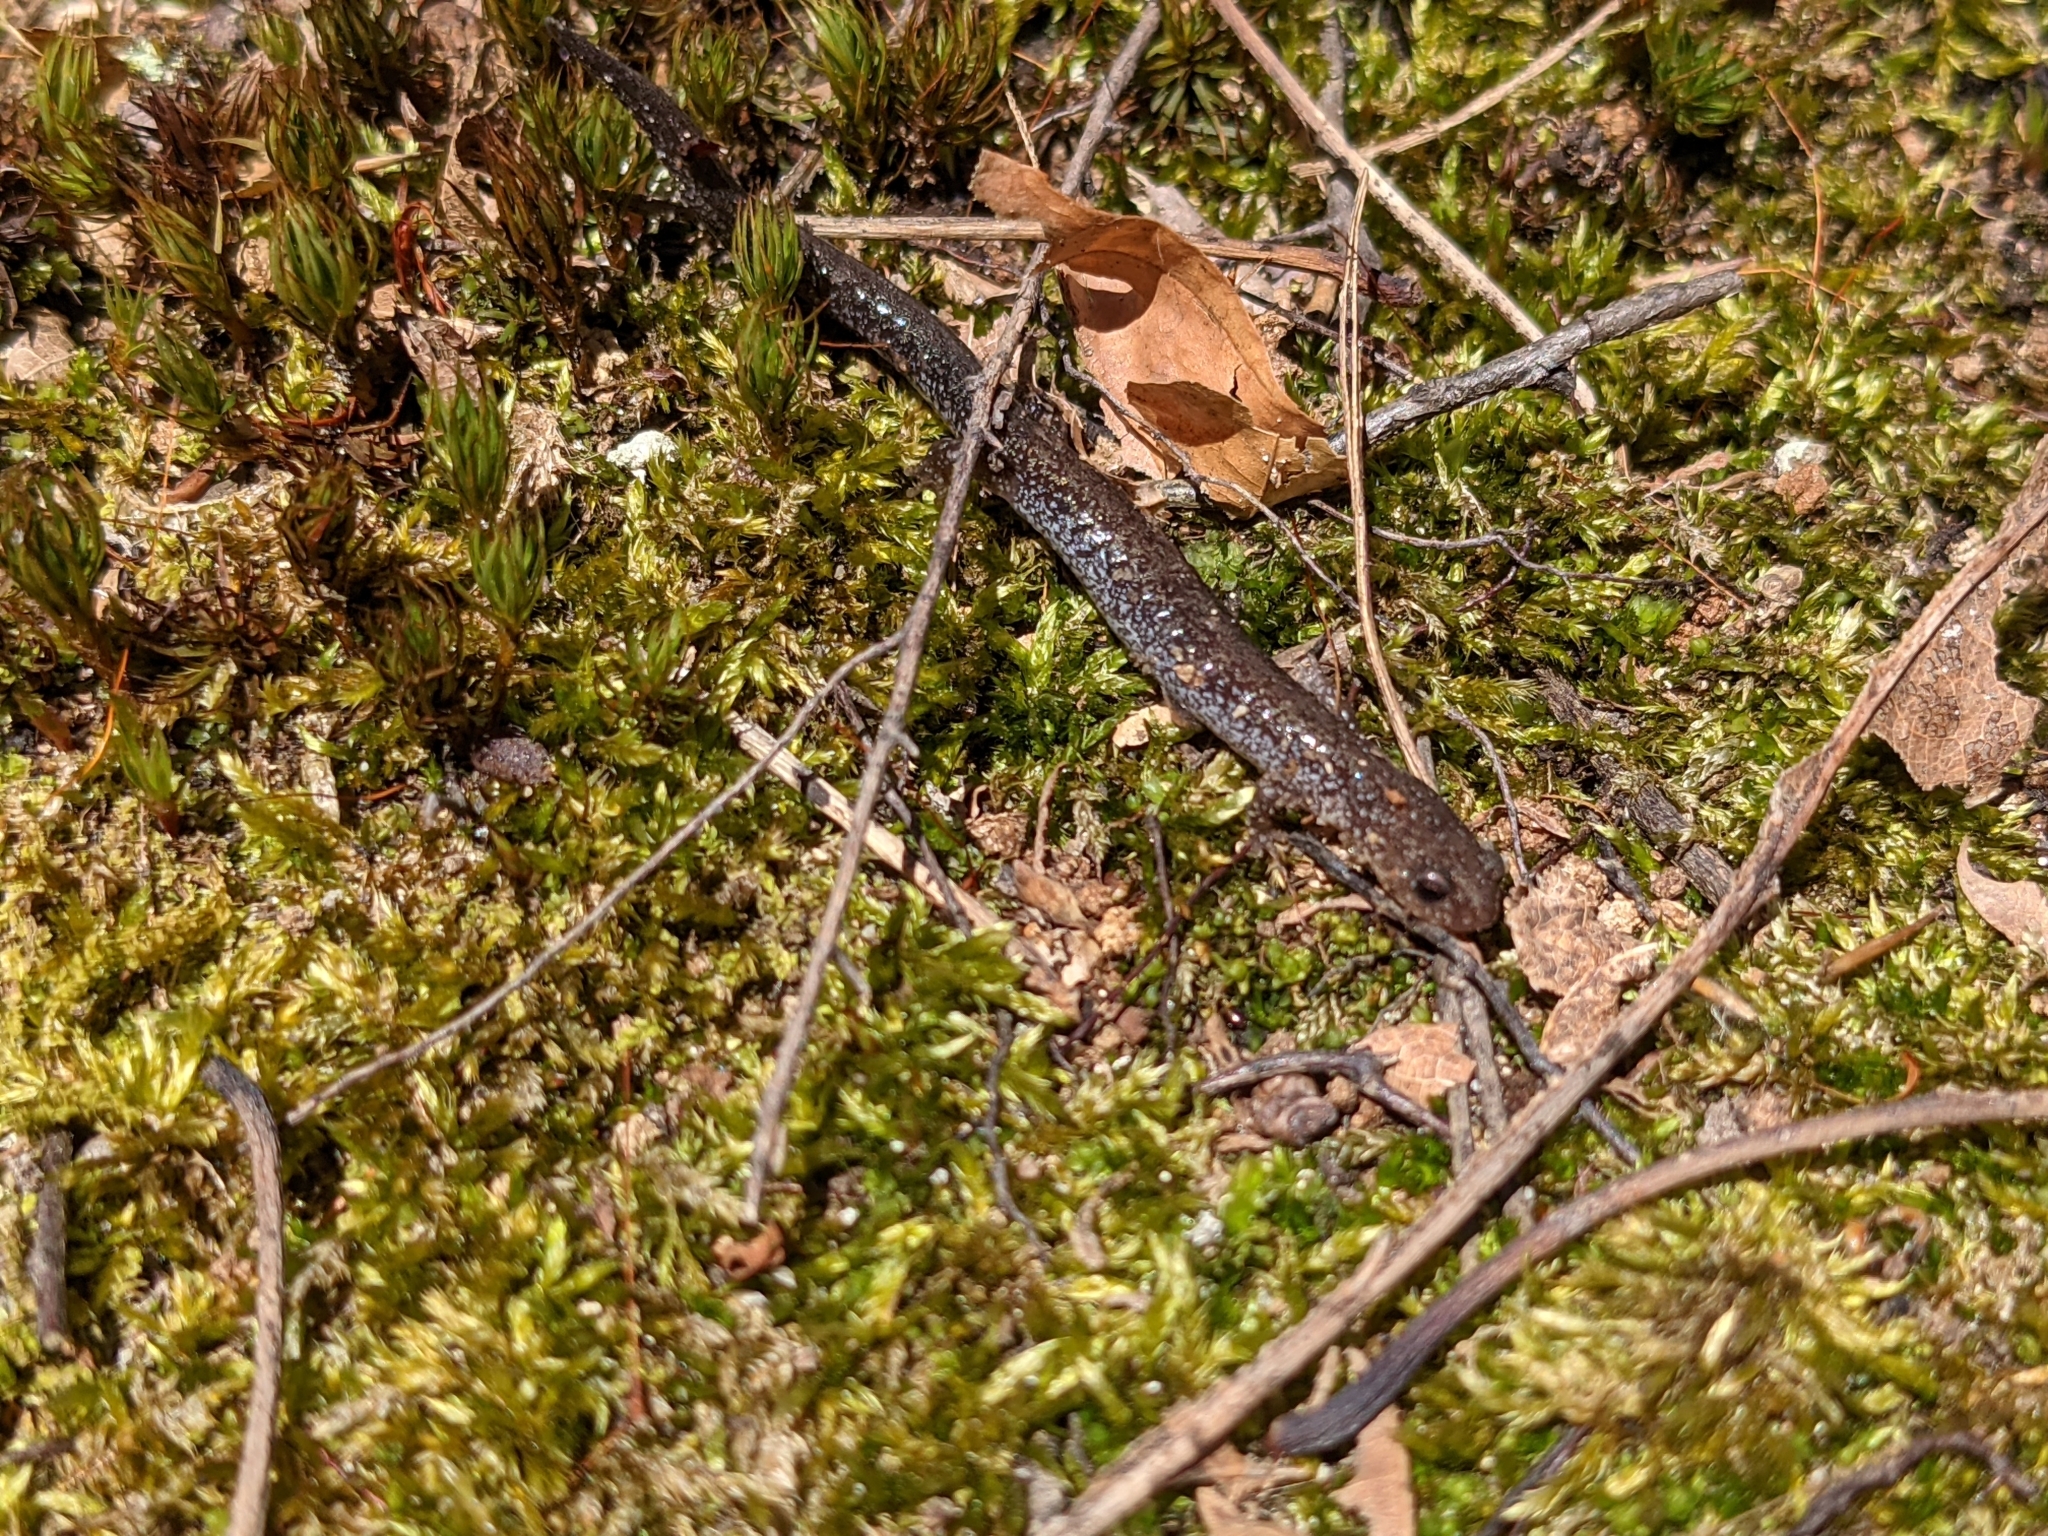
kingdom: Animalia
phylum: Chordata
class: Amphibia
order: Caudata
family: Plethodontidae
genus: Plethodon
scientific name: Plethodon cinereus
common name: Redback salamander
